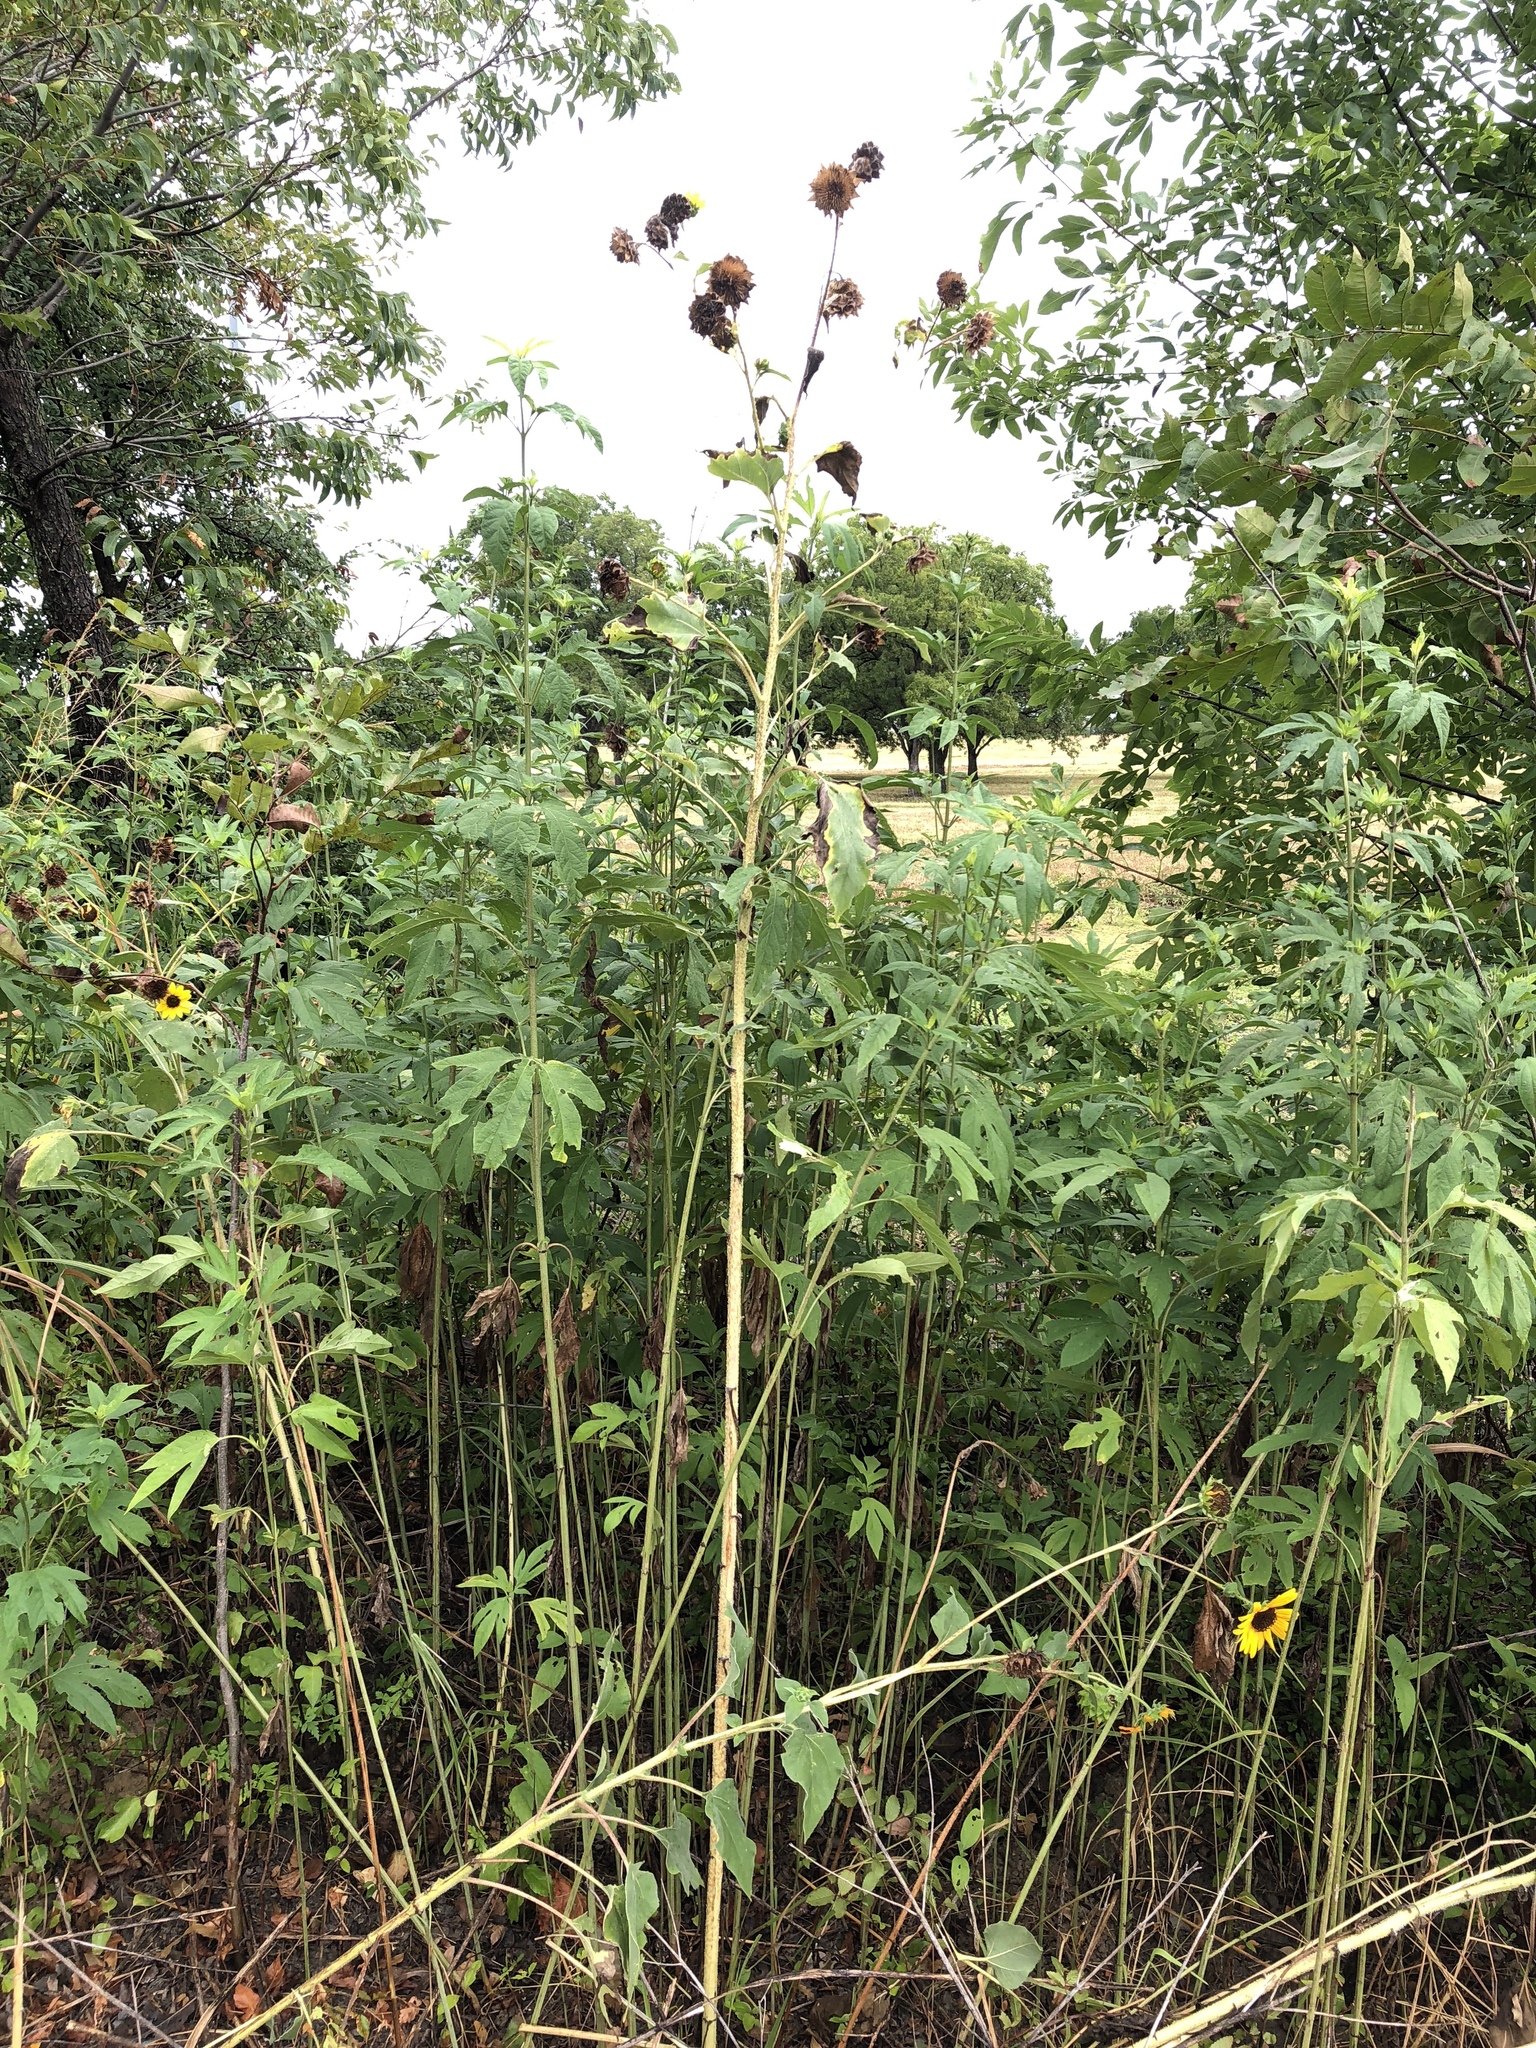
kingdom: Plantae
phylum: Tracheophyta
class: Magnoliopsida
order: Asterales
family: Asteraceae
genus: Helianthus
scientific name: Helianthus annuus
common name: Sunflower
